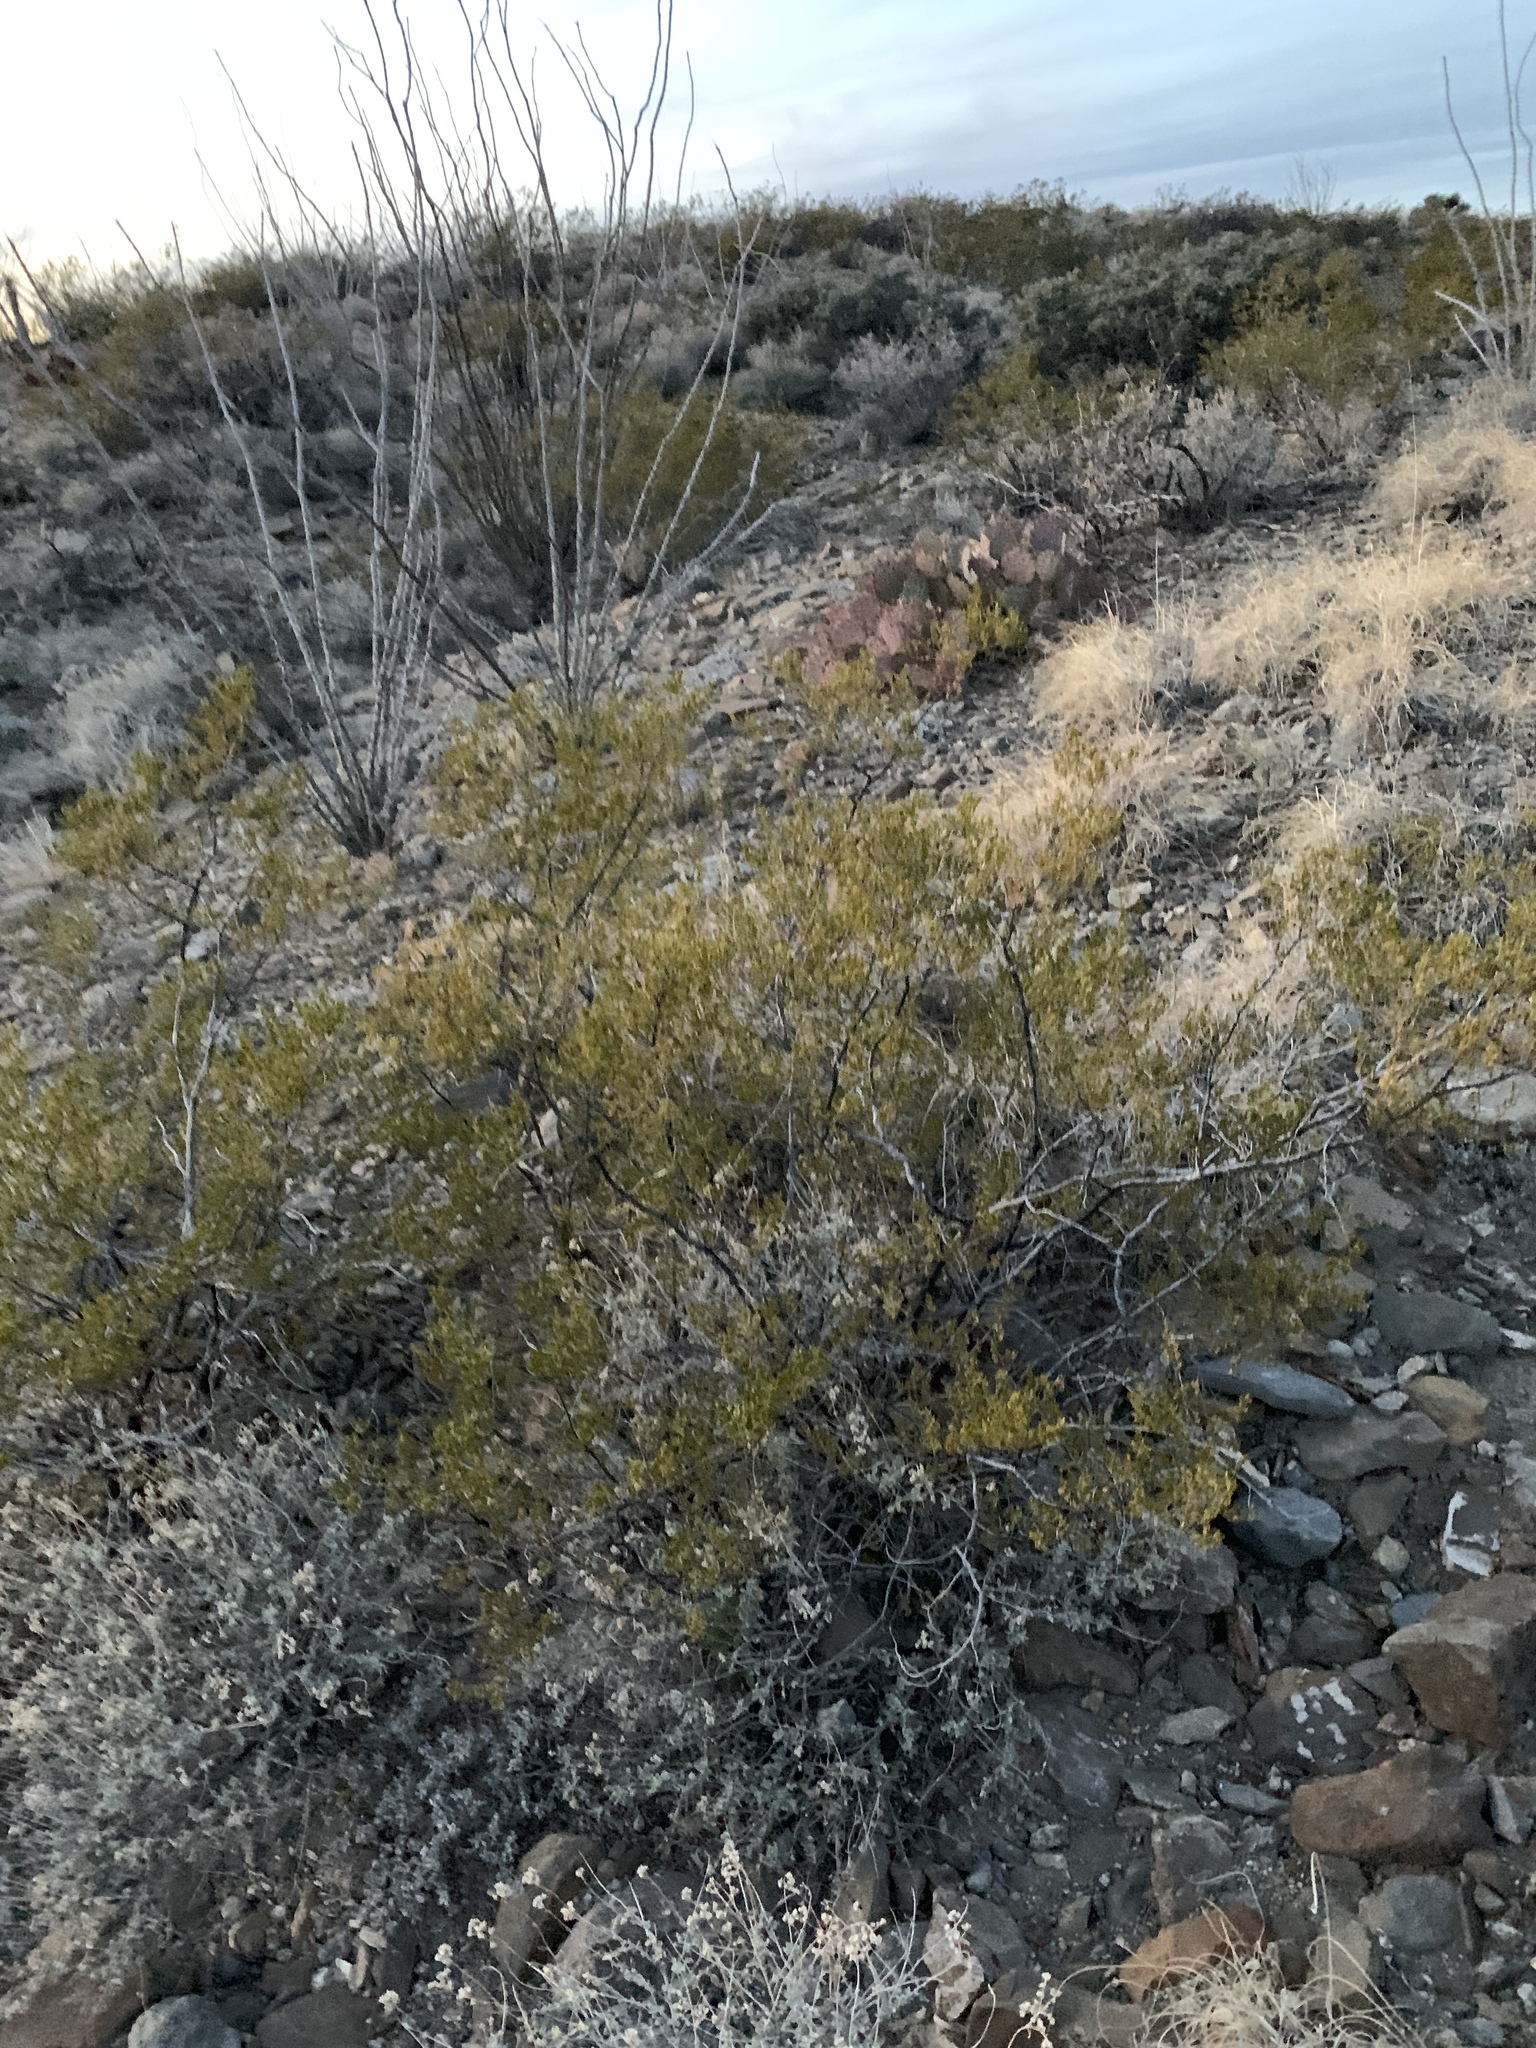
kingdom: Plantae
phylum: Tracheophyta
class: Magnoliopsida
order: Zygophyllales
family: Zygophyllaceae
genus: Larrea
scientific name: Larrea tridentata
